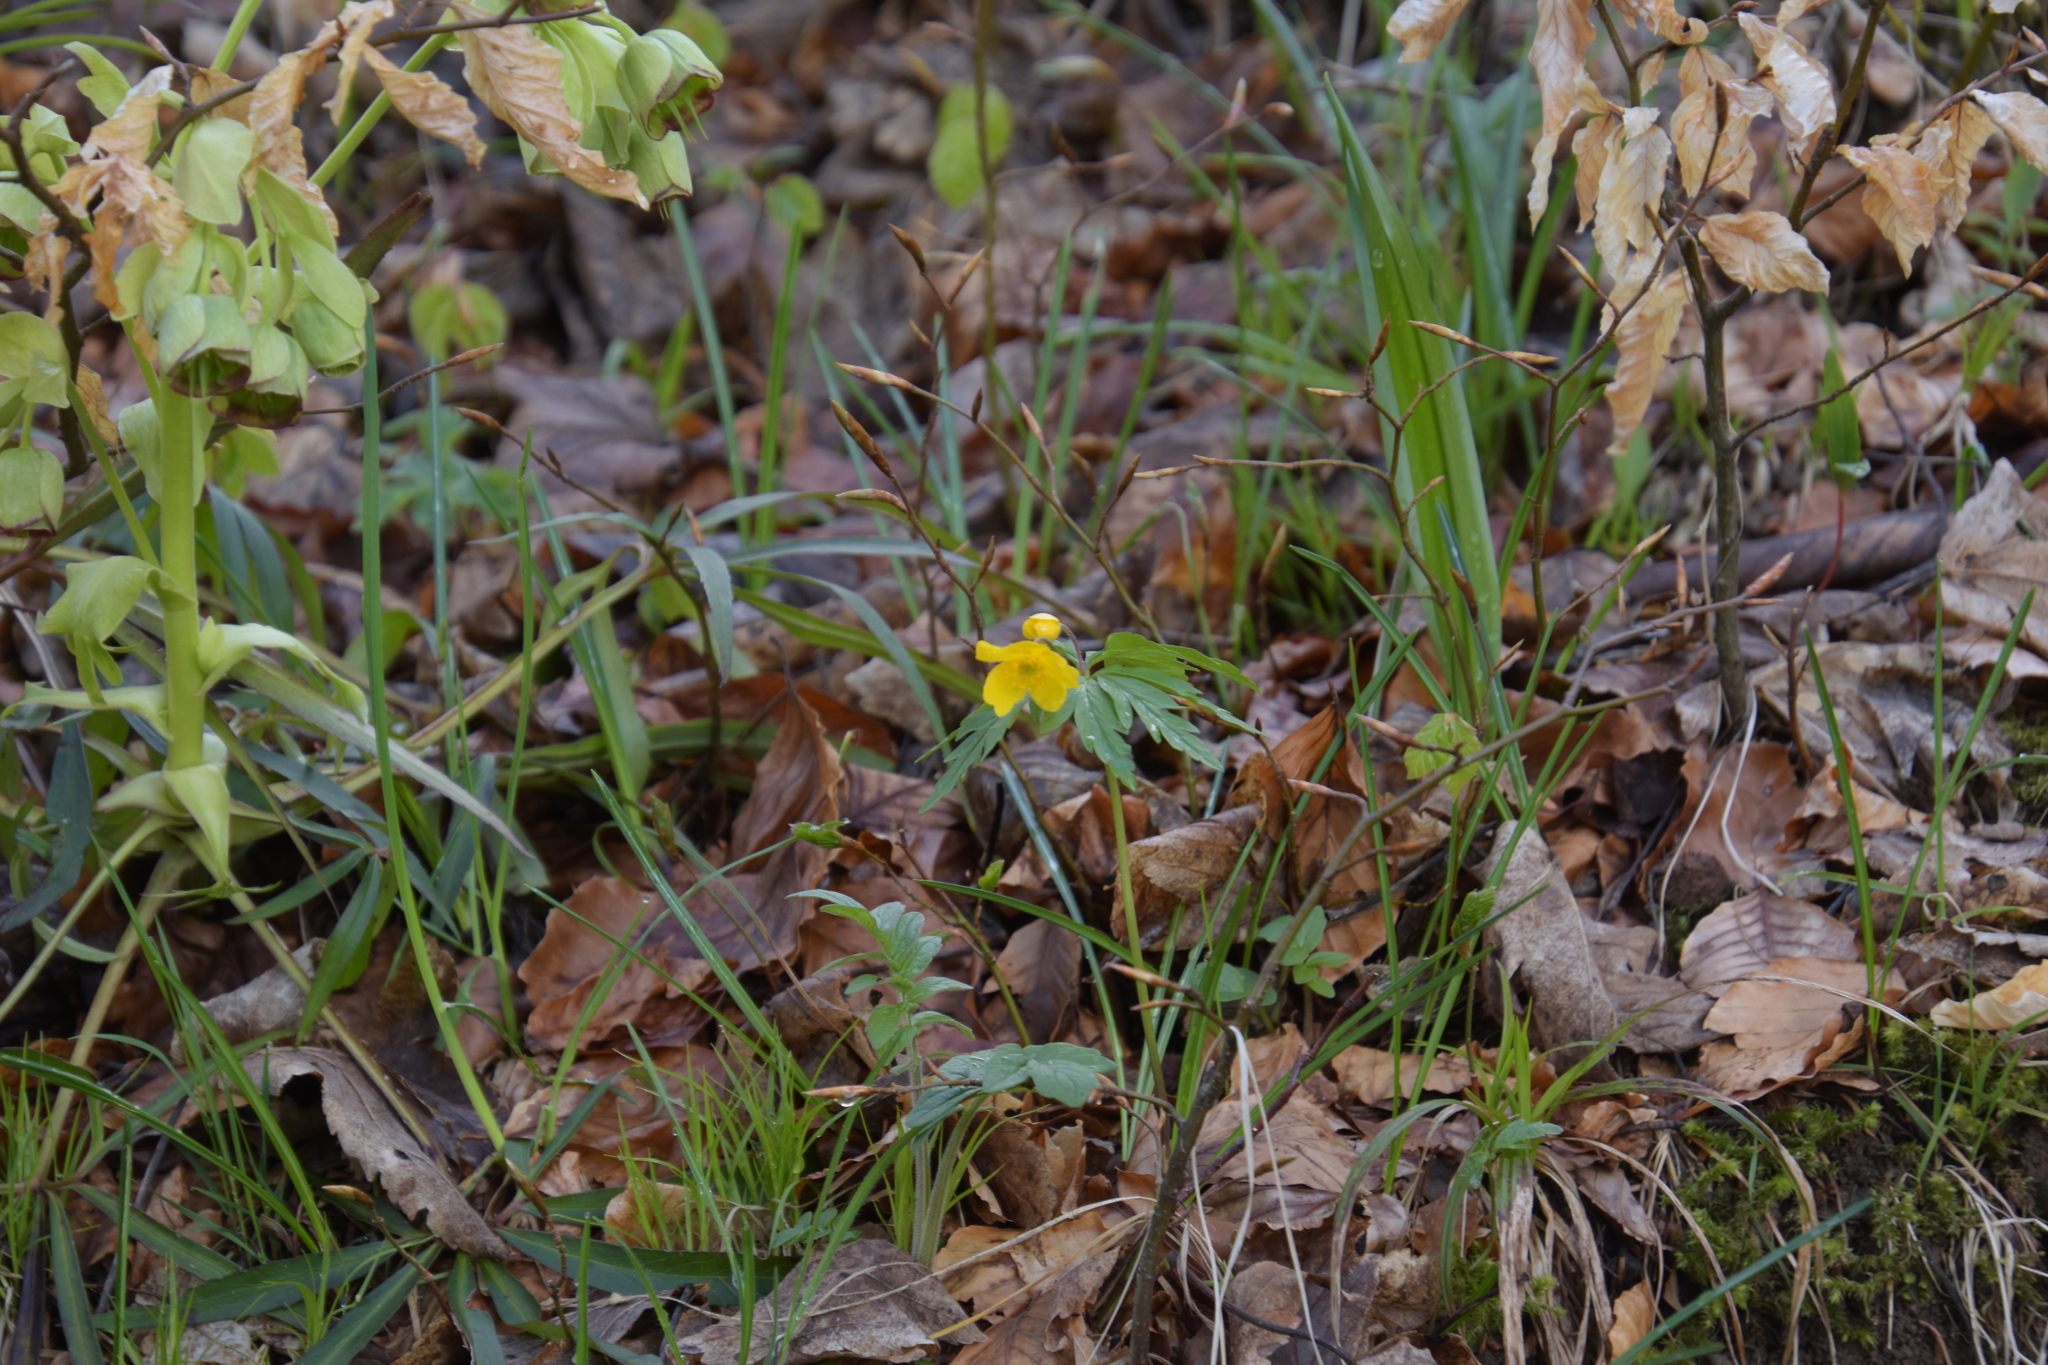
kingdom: Plantae
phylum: Tracheophyta
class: Magnoliopsida
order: Ranunculales
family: Ranunculaceae
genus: Anemone
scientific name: Anemone ranunculoides
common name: Yellow anemone
